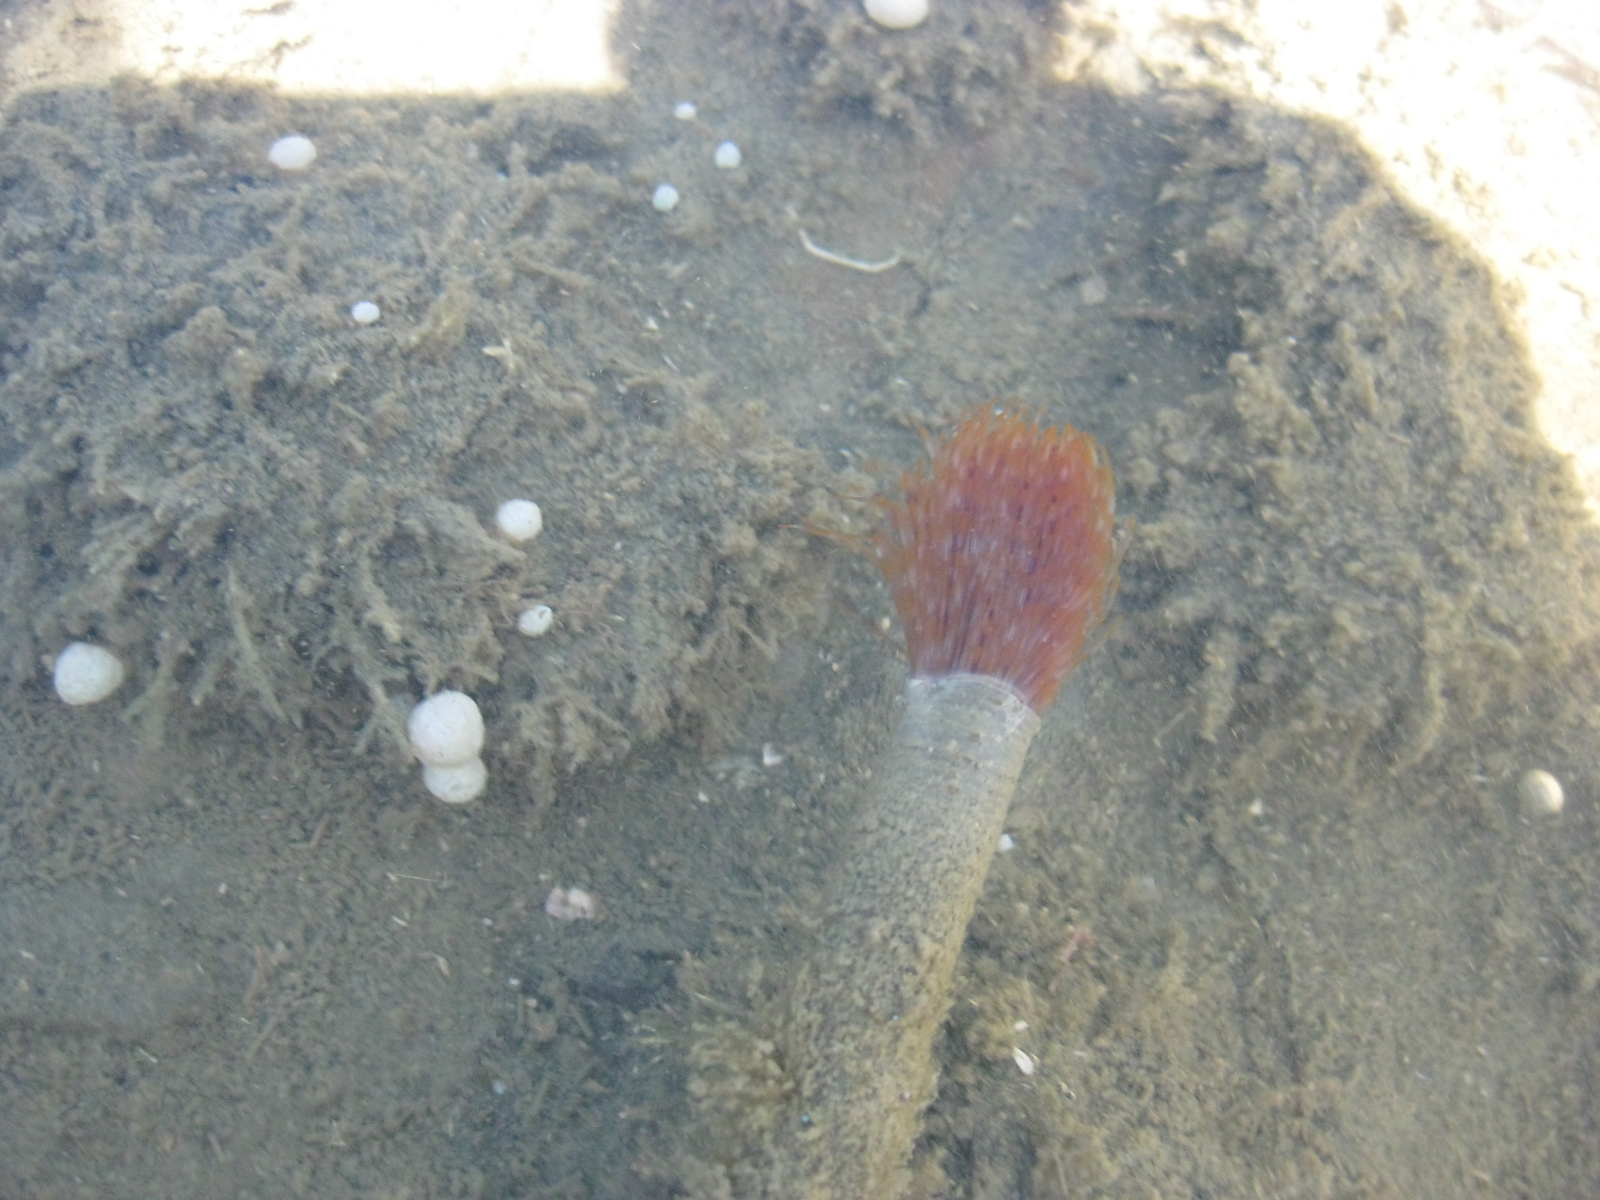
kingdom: Animalia
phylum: Annelida
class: Polychaeta
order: Sabellida
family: Sabellidae
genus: Sabella
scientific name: Sabella spallanzanii
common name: Feather duster worm
